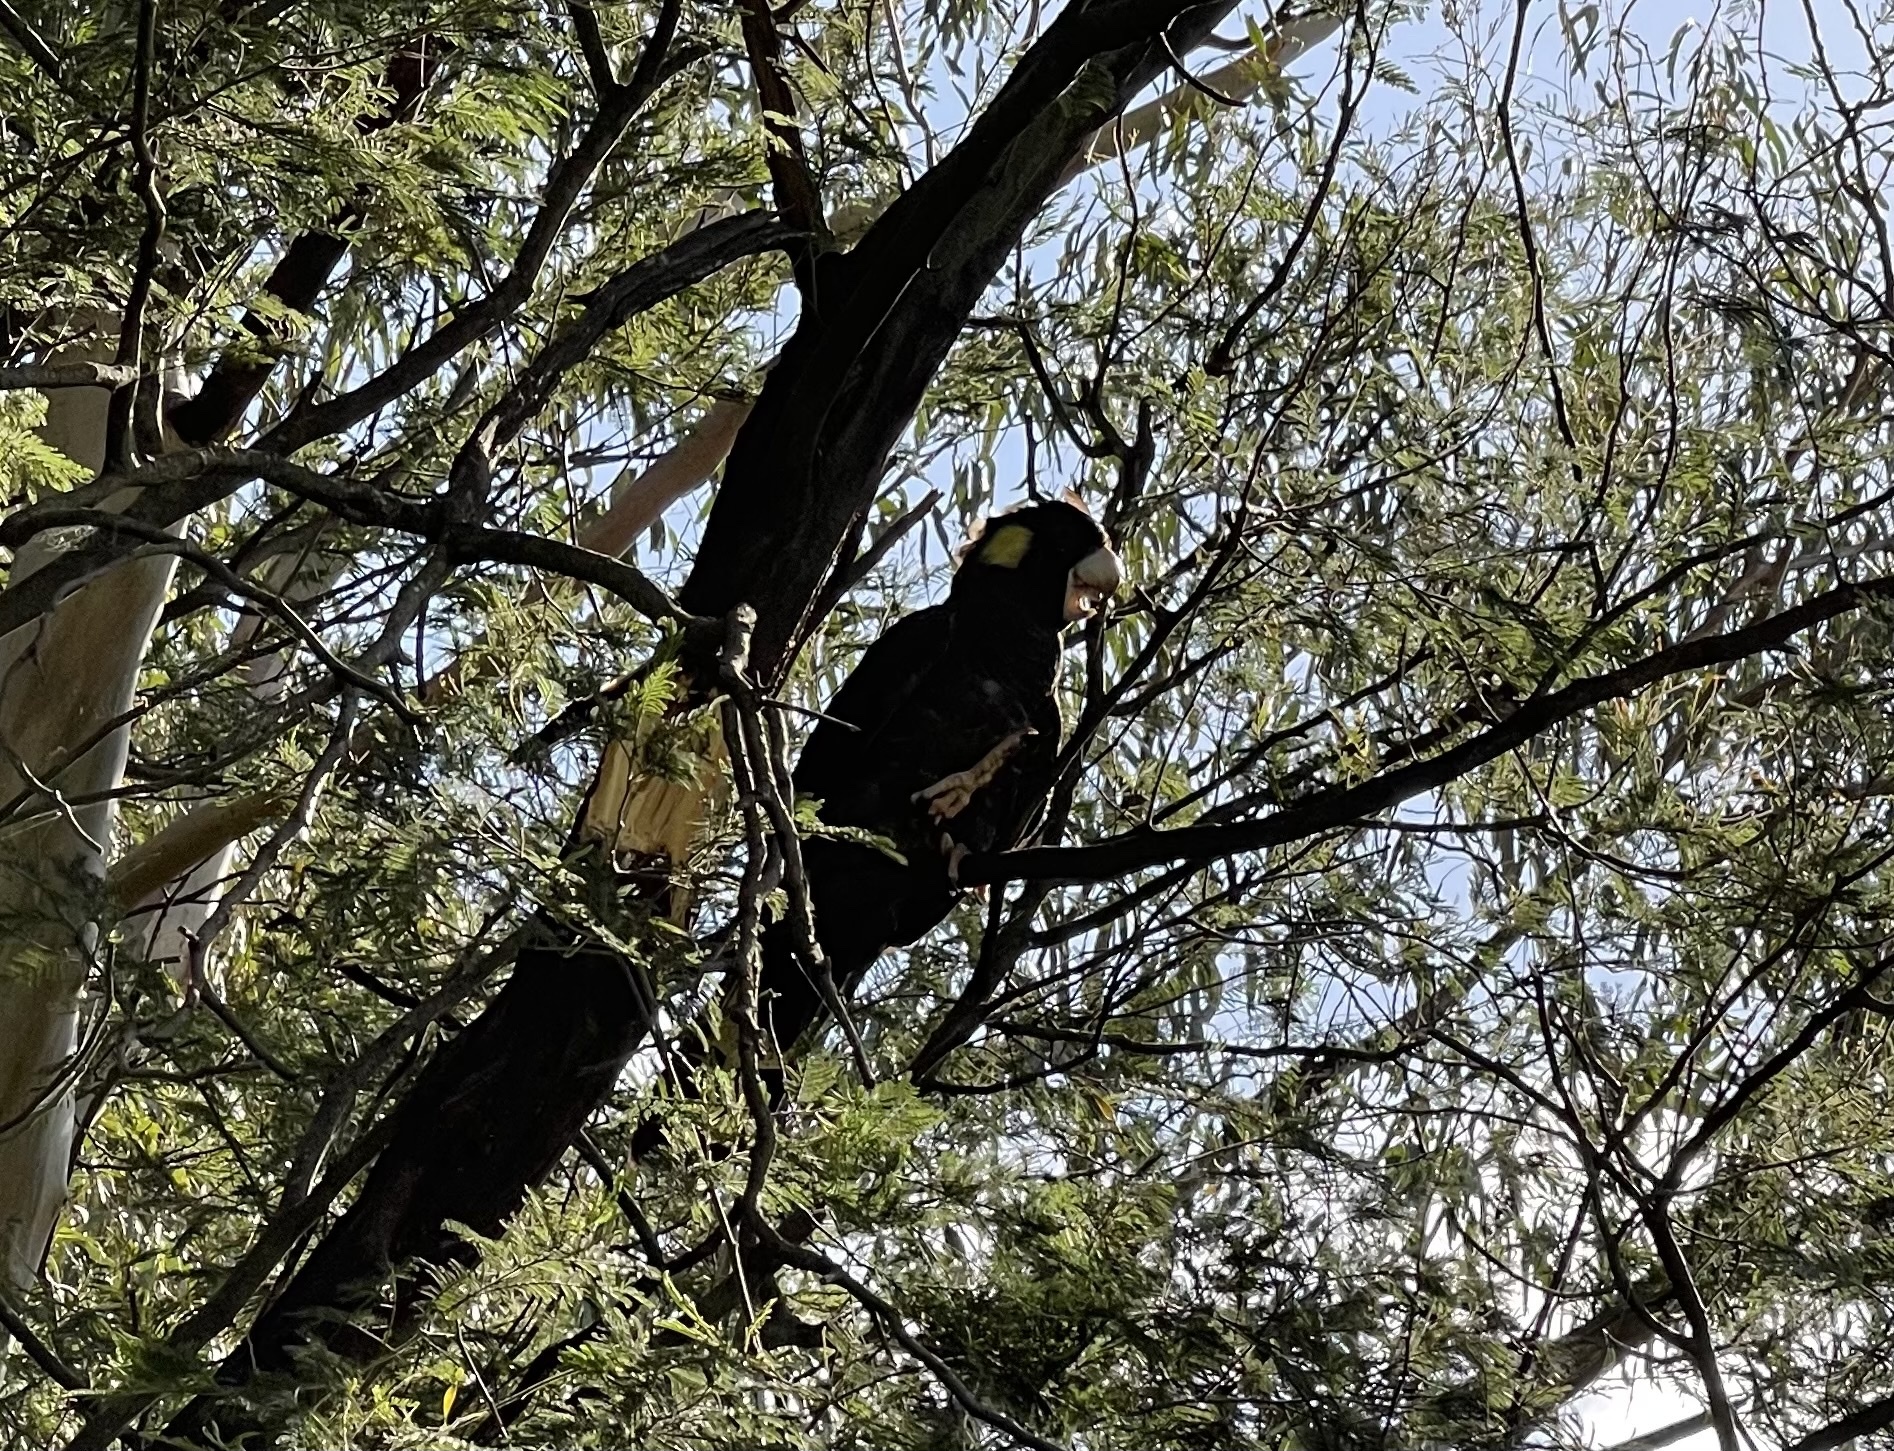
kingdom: Animalia
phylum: Chordata
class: Aves
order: Psittaciformes
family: Cacatuidae
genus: Zanda
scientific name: Zanda funerea
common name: Yellow-tailed black-cockatoo
